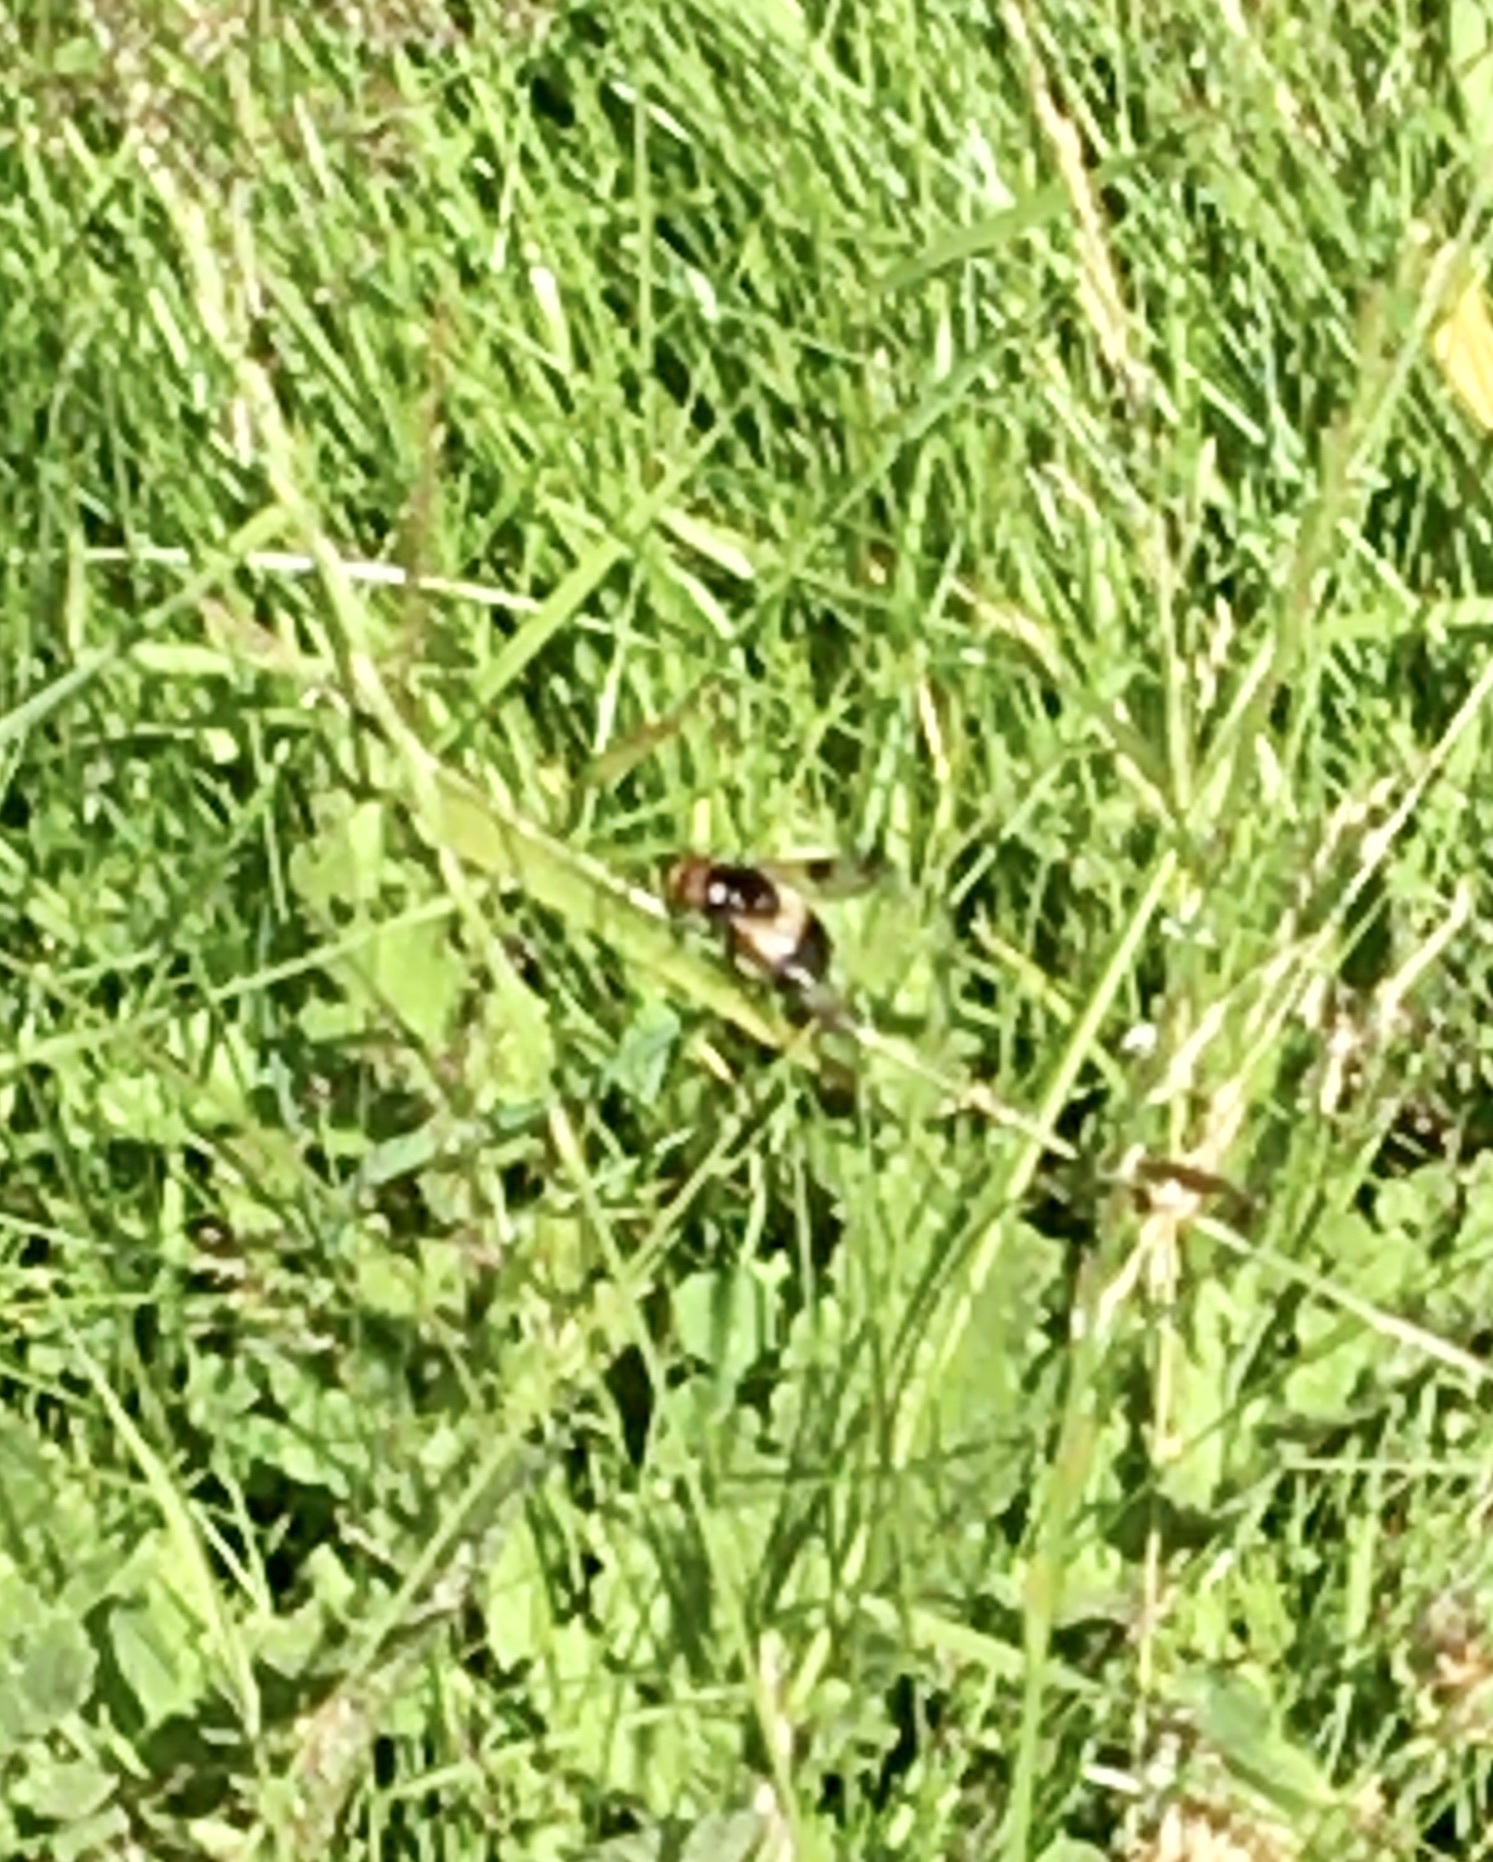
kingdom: Animalia
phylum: Arthropoda
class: Insecta
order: Diptera
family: Syrphidae
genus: Volucella
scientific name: Volucella pellucens
